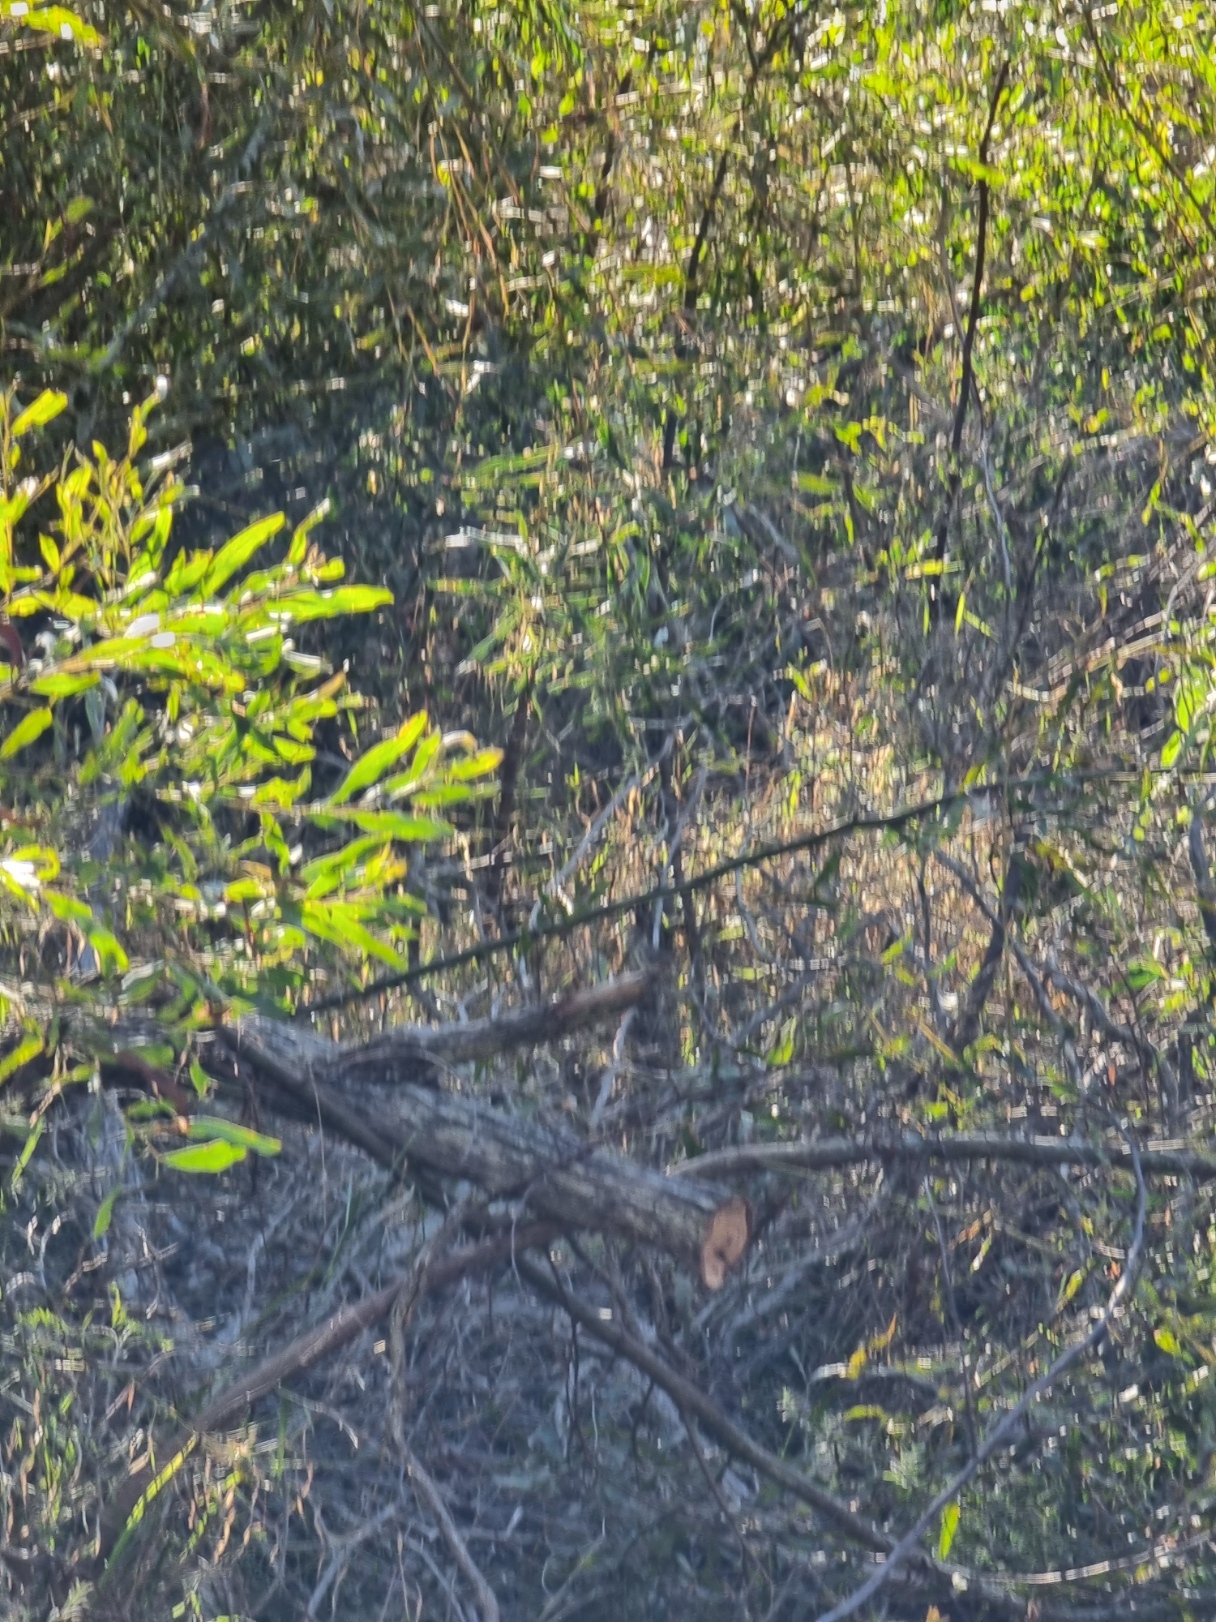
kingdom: Animalia
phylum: Chordata
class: Aves
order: Passeriformes
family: Acanthizidae
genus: Pyrrholaemus
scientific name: Pyrrholaemus sagittatus
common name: Speckled warbler
